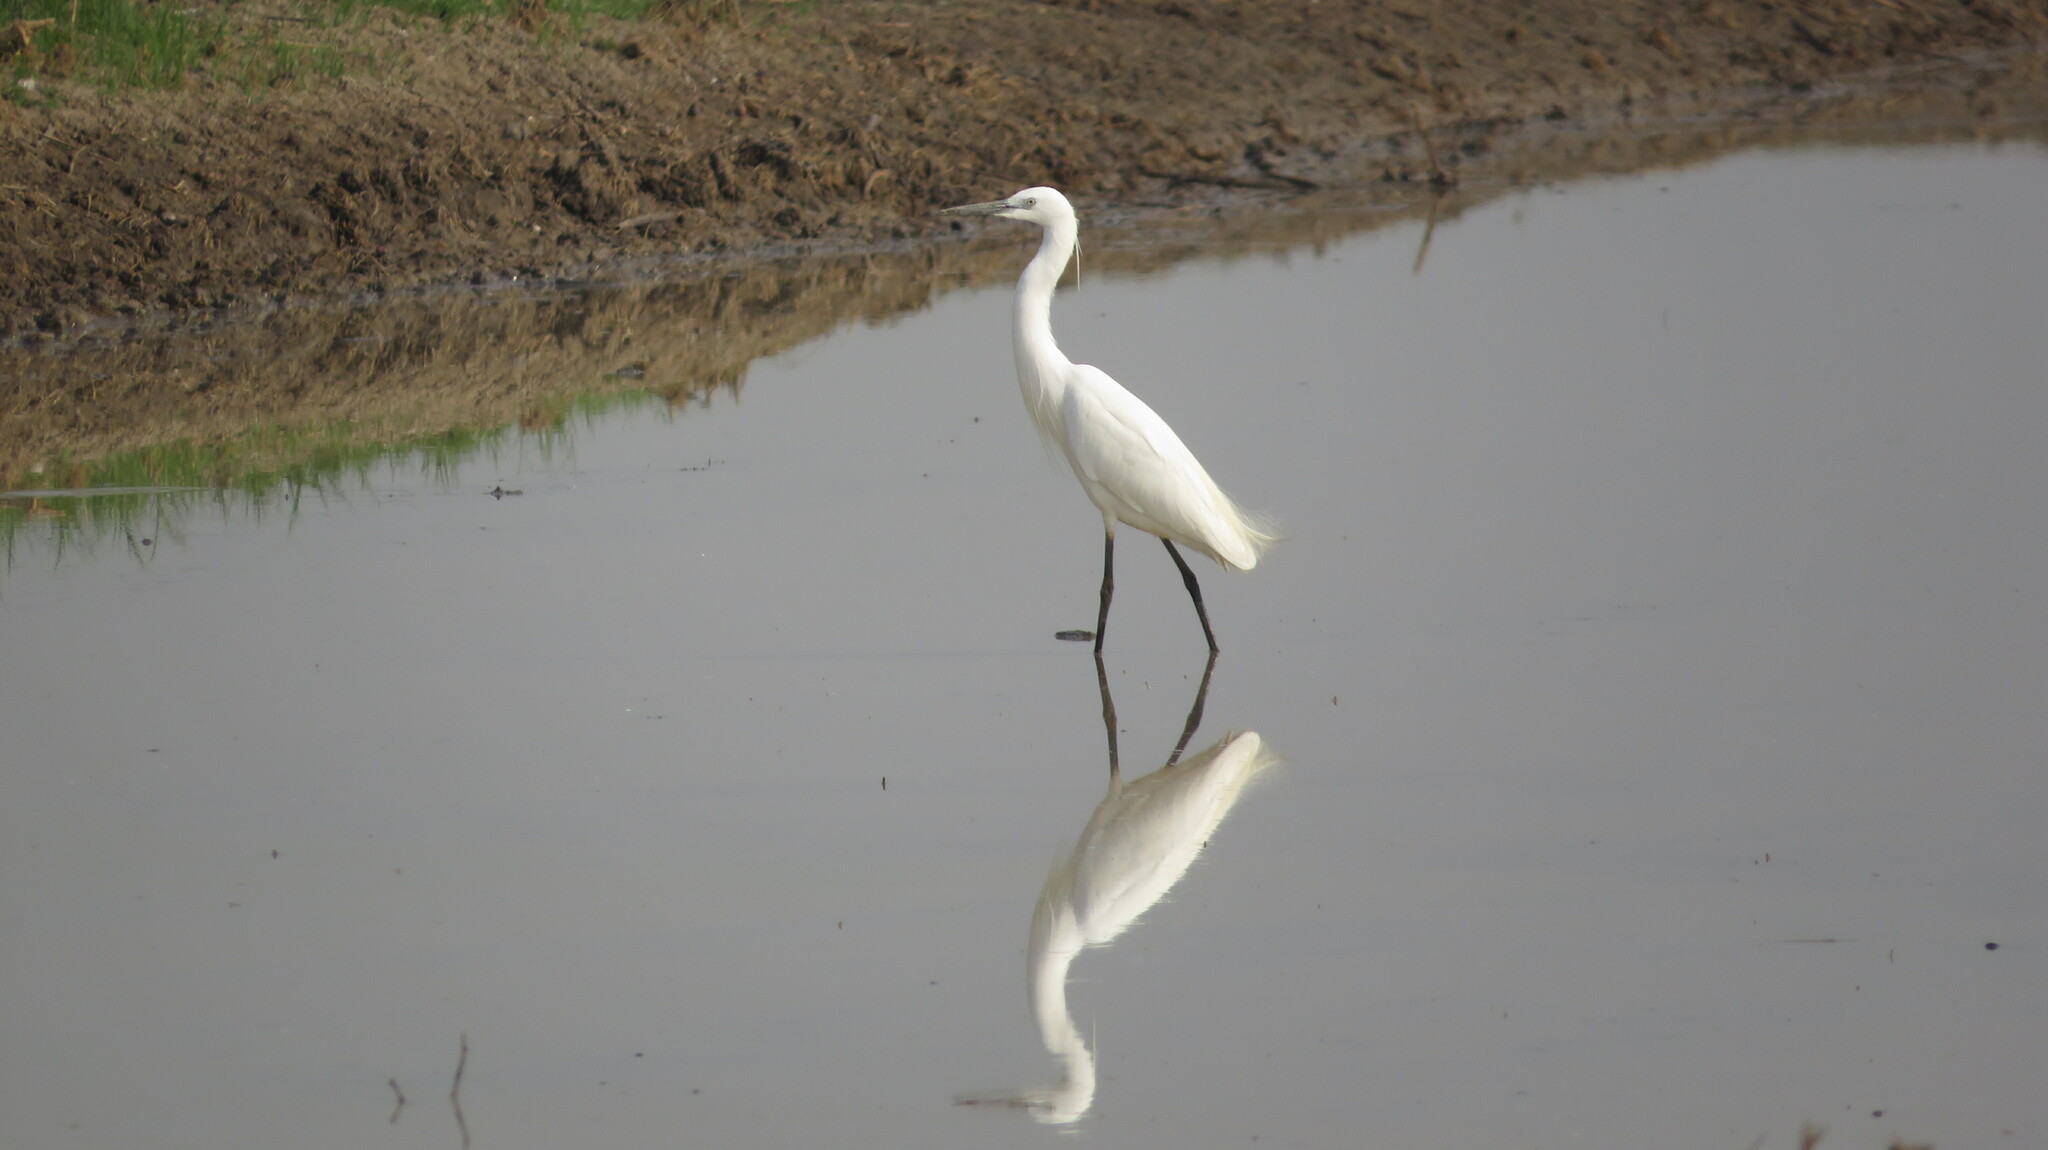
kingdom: Animalia
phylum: Chordata
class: Aves
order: Pelecaniformes
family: Ardeidae
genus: Egretta
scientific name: Egretta garzetta
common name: Little egret
